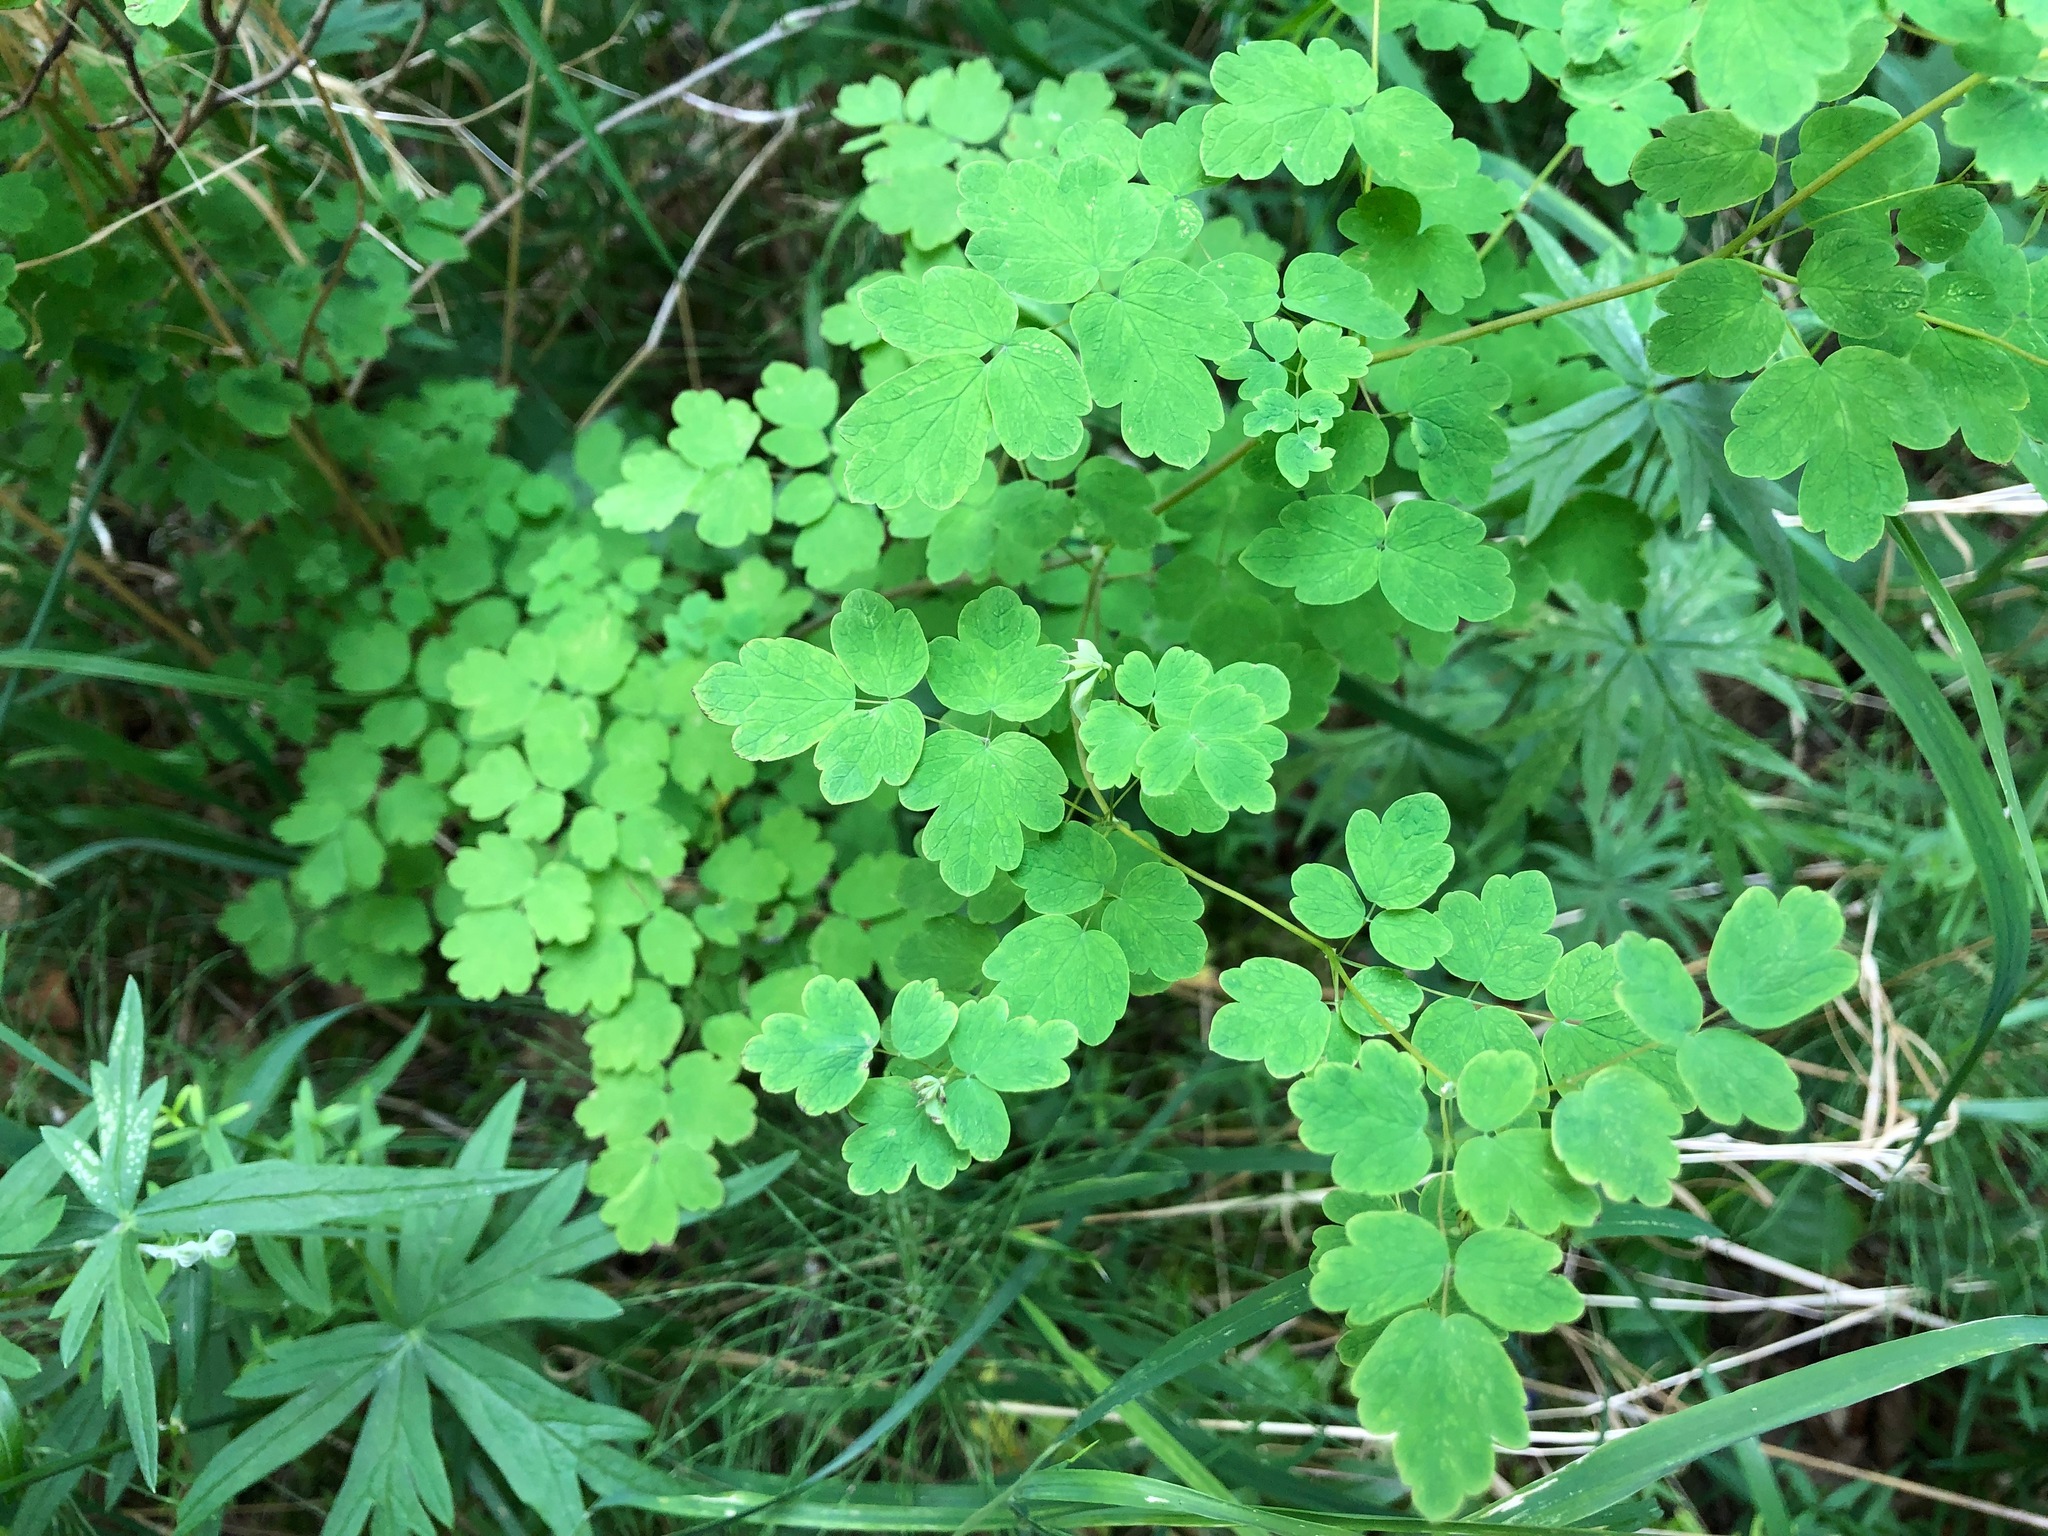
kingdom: Plantae
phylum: Tracheophyta
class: Magnoliopsida
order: Ranunculales
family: Ranunculaceae
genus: Thalictrum
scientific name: Thalictrum sparsiflorum
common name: Mountain meadow-rue
